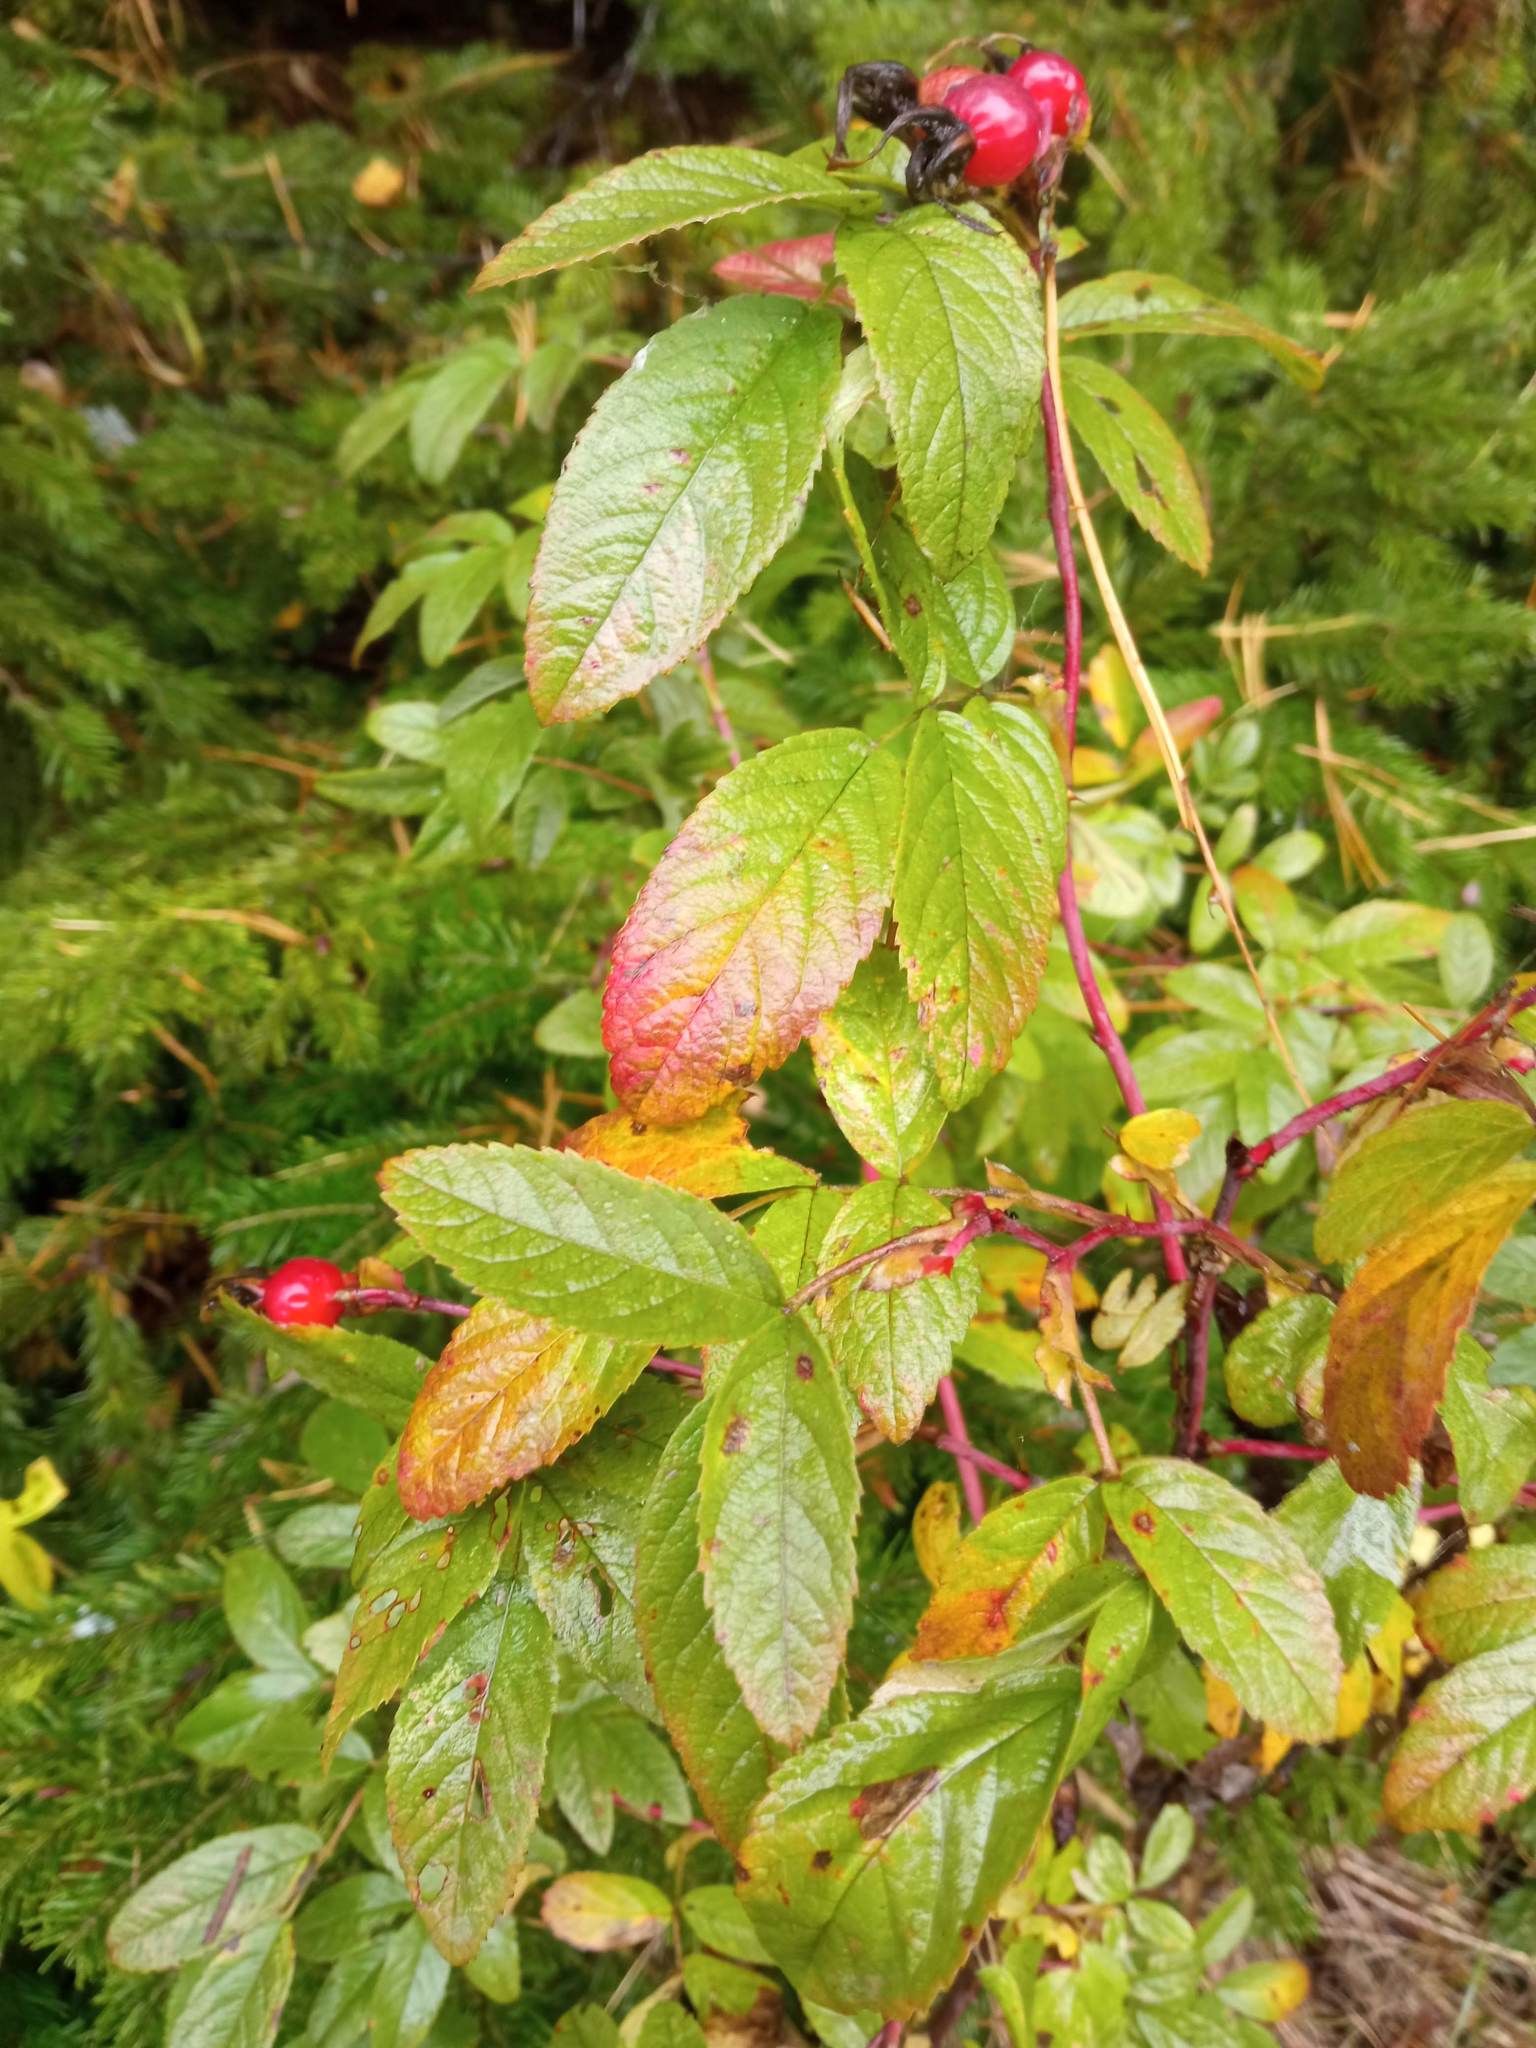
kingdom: Plantae
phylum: Tracheophyta
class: Magnoliopsida
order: Rosales
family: Rosaceae
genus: Rosa
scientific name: Rosa majalis
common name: Cinnamon rose
